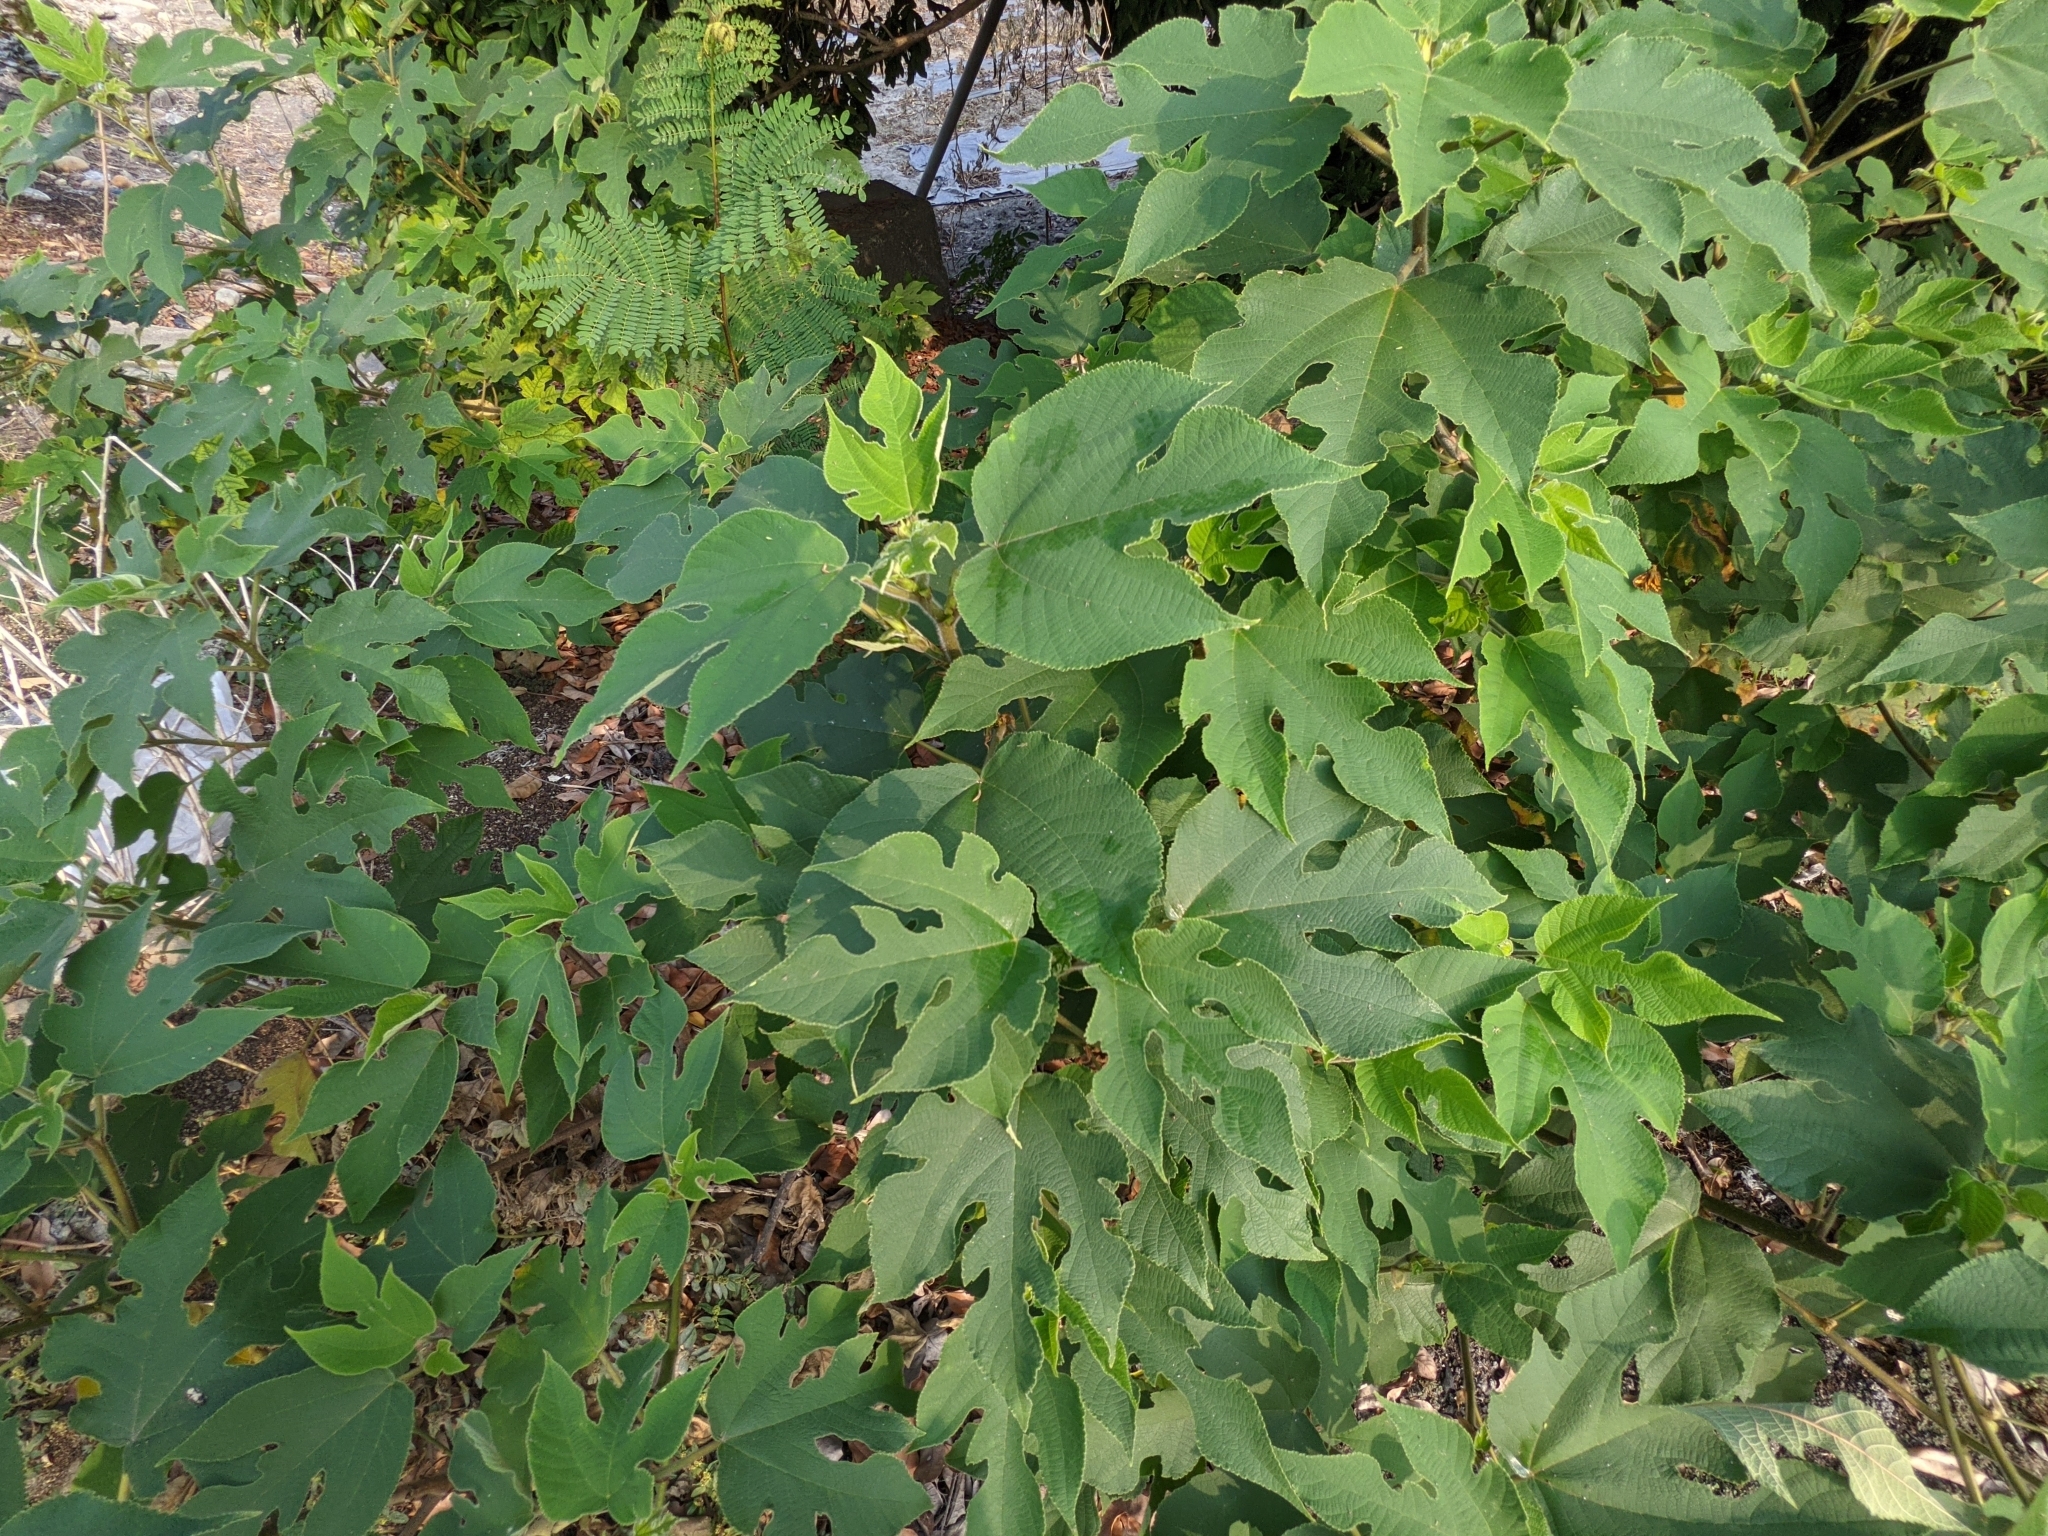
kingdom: Plantae
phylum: Tracheophyta
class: Magnoliopsida
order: Rosales
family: Moraceae
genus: Broussonetia
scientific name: Broussonetia papyrifera
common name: Paper mulberry
